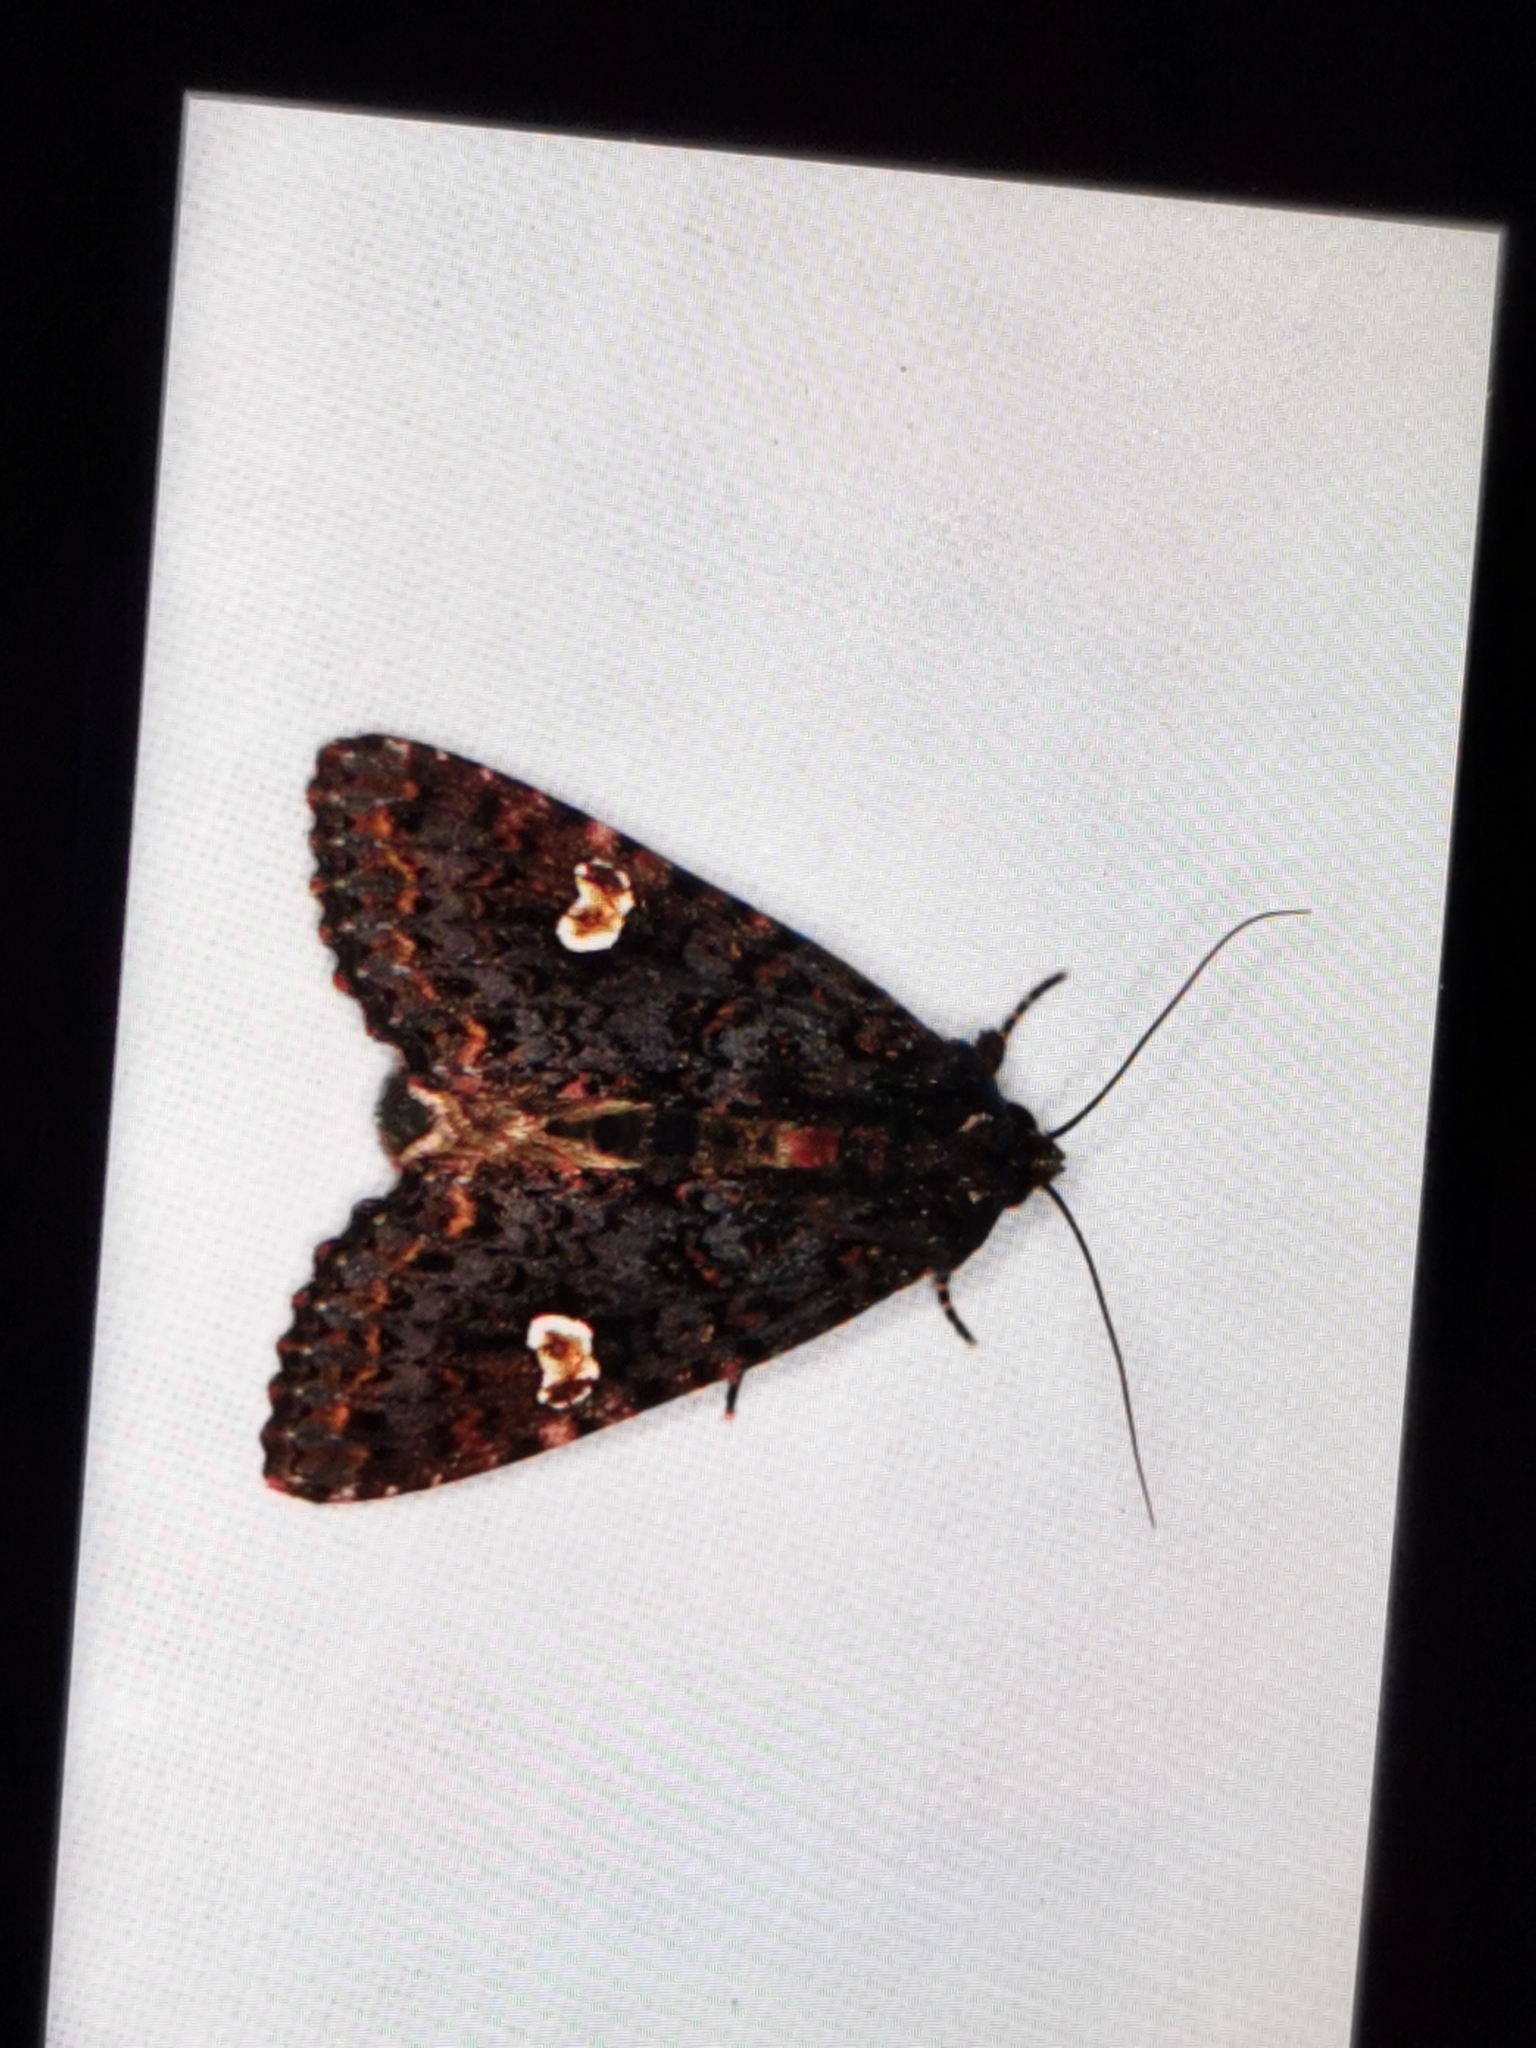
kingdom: Animalia
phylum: Arthropoda
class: Insecta
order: Lepidoptera
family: Noctuidae
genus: Melanchra
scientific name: Melanchra persicariae
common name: Dot moth
